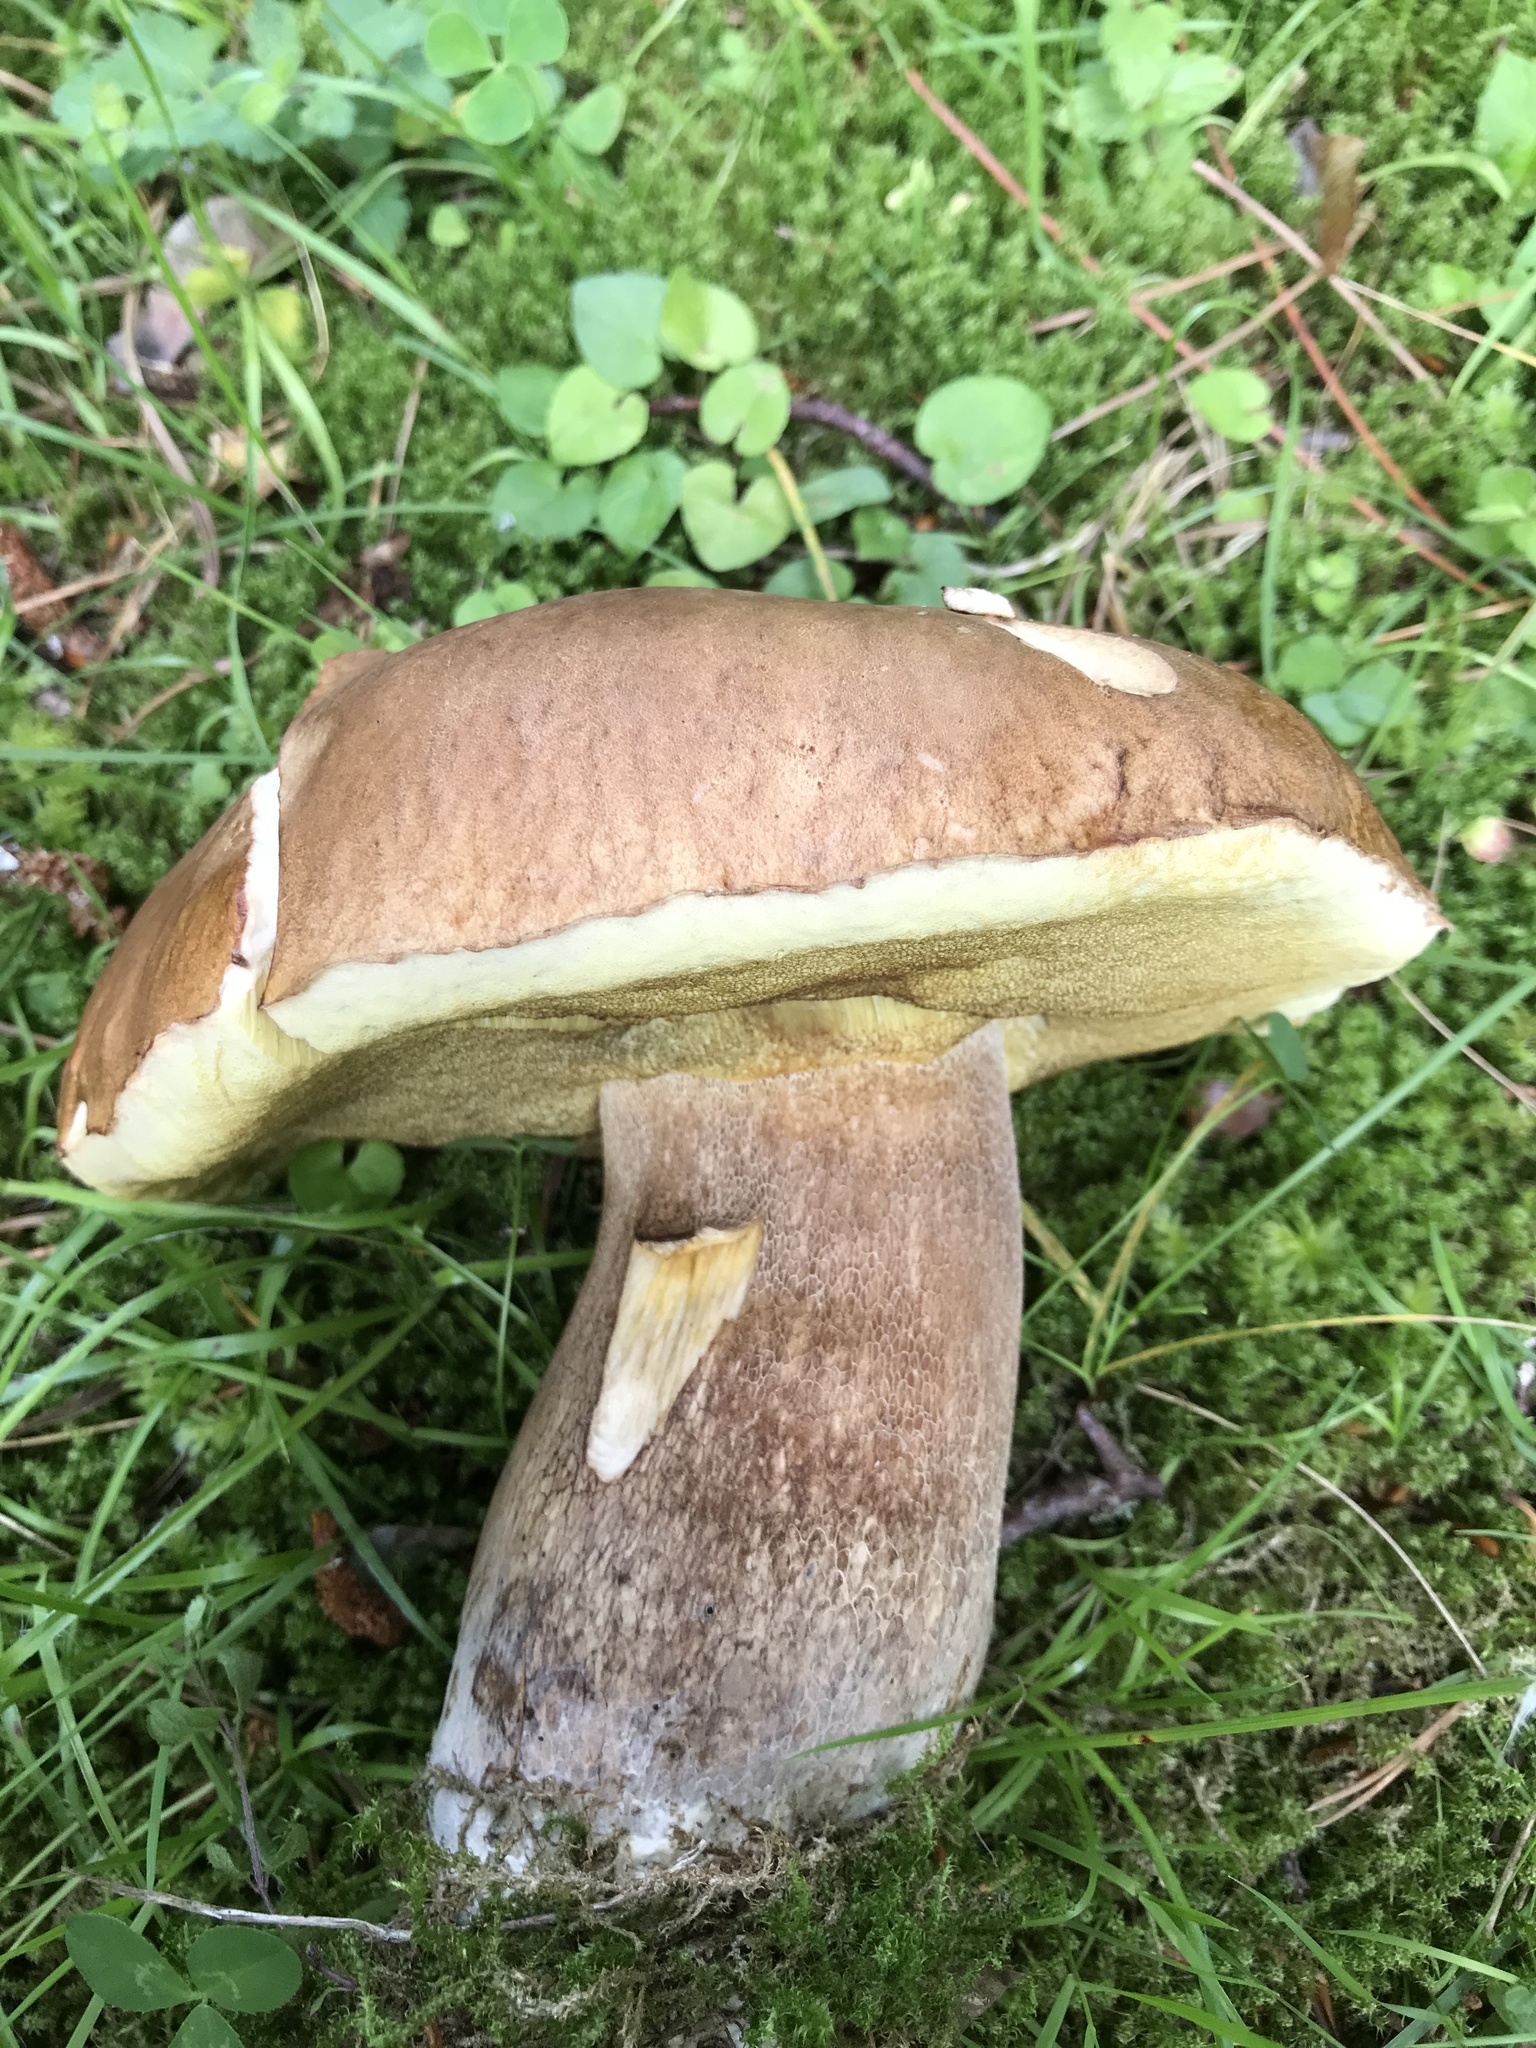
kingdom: Fungi
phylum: Basidiomycota
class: Agaricomycetes
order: Boletales
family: Boletaceae
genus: Boletus
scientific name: Boletus reticulatus
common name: Summer bolete
